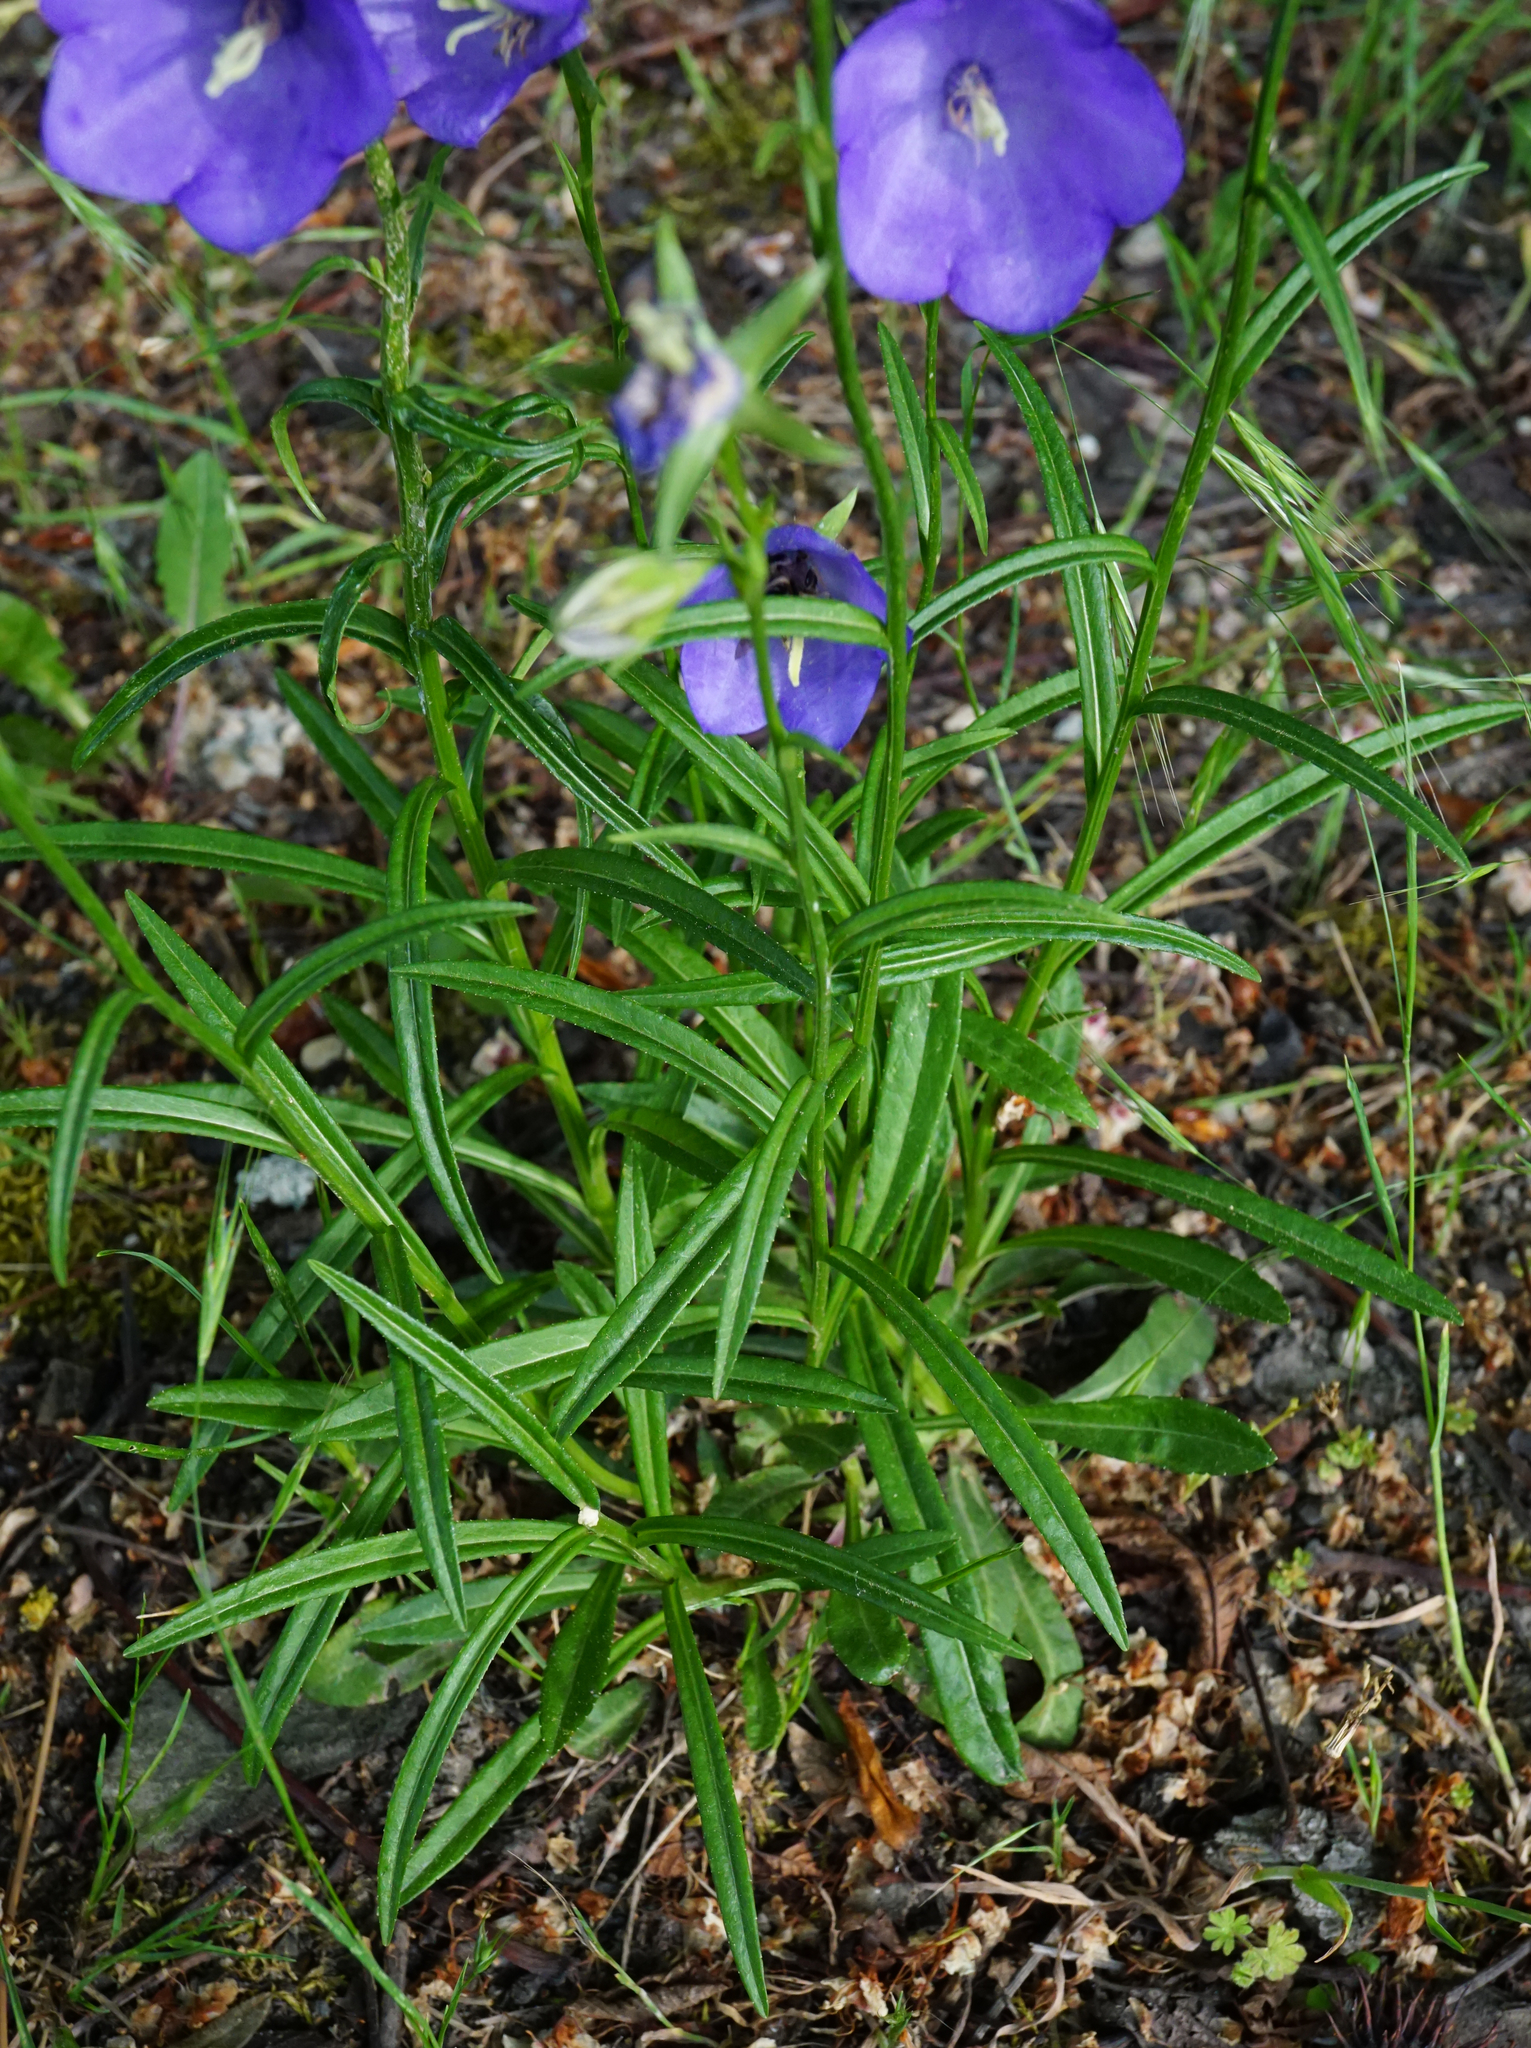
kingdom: Plantae
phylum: Tracheophyta
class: Magnoliopsida
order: Asterales
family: Campanulaceae
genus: Campanula
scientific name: Campanula persicifolia
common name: Peach-leaved bellflower
